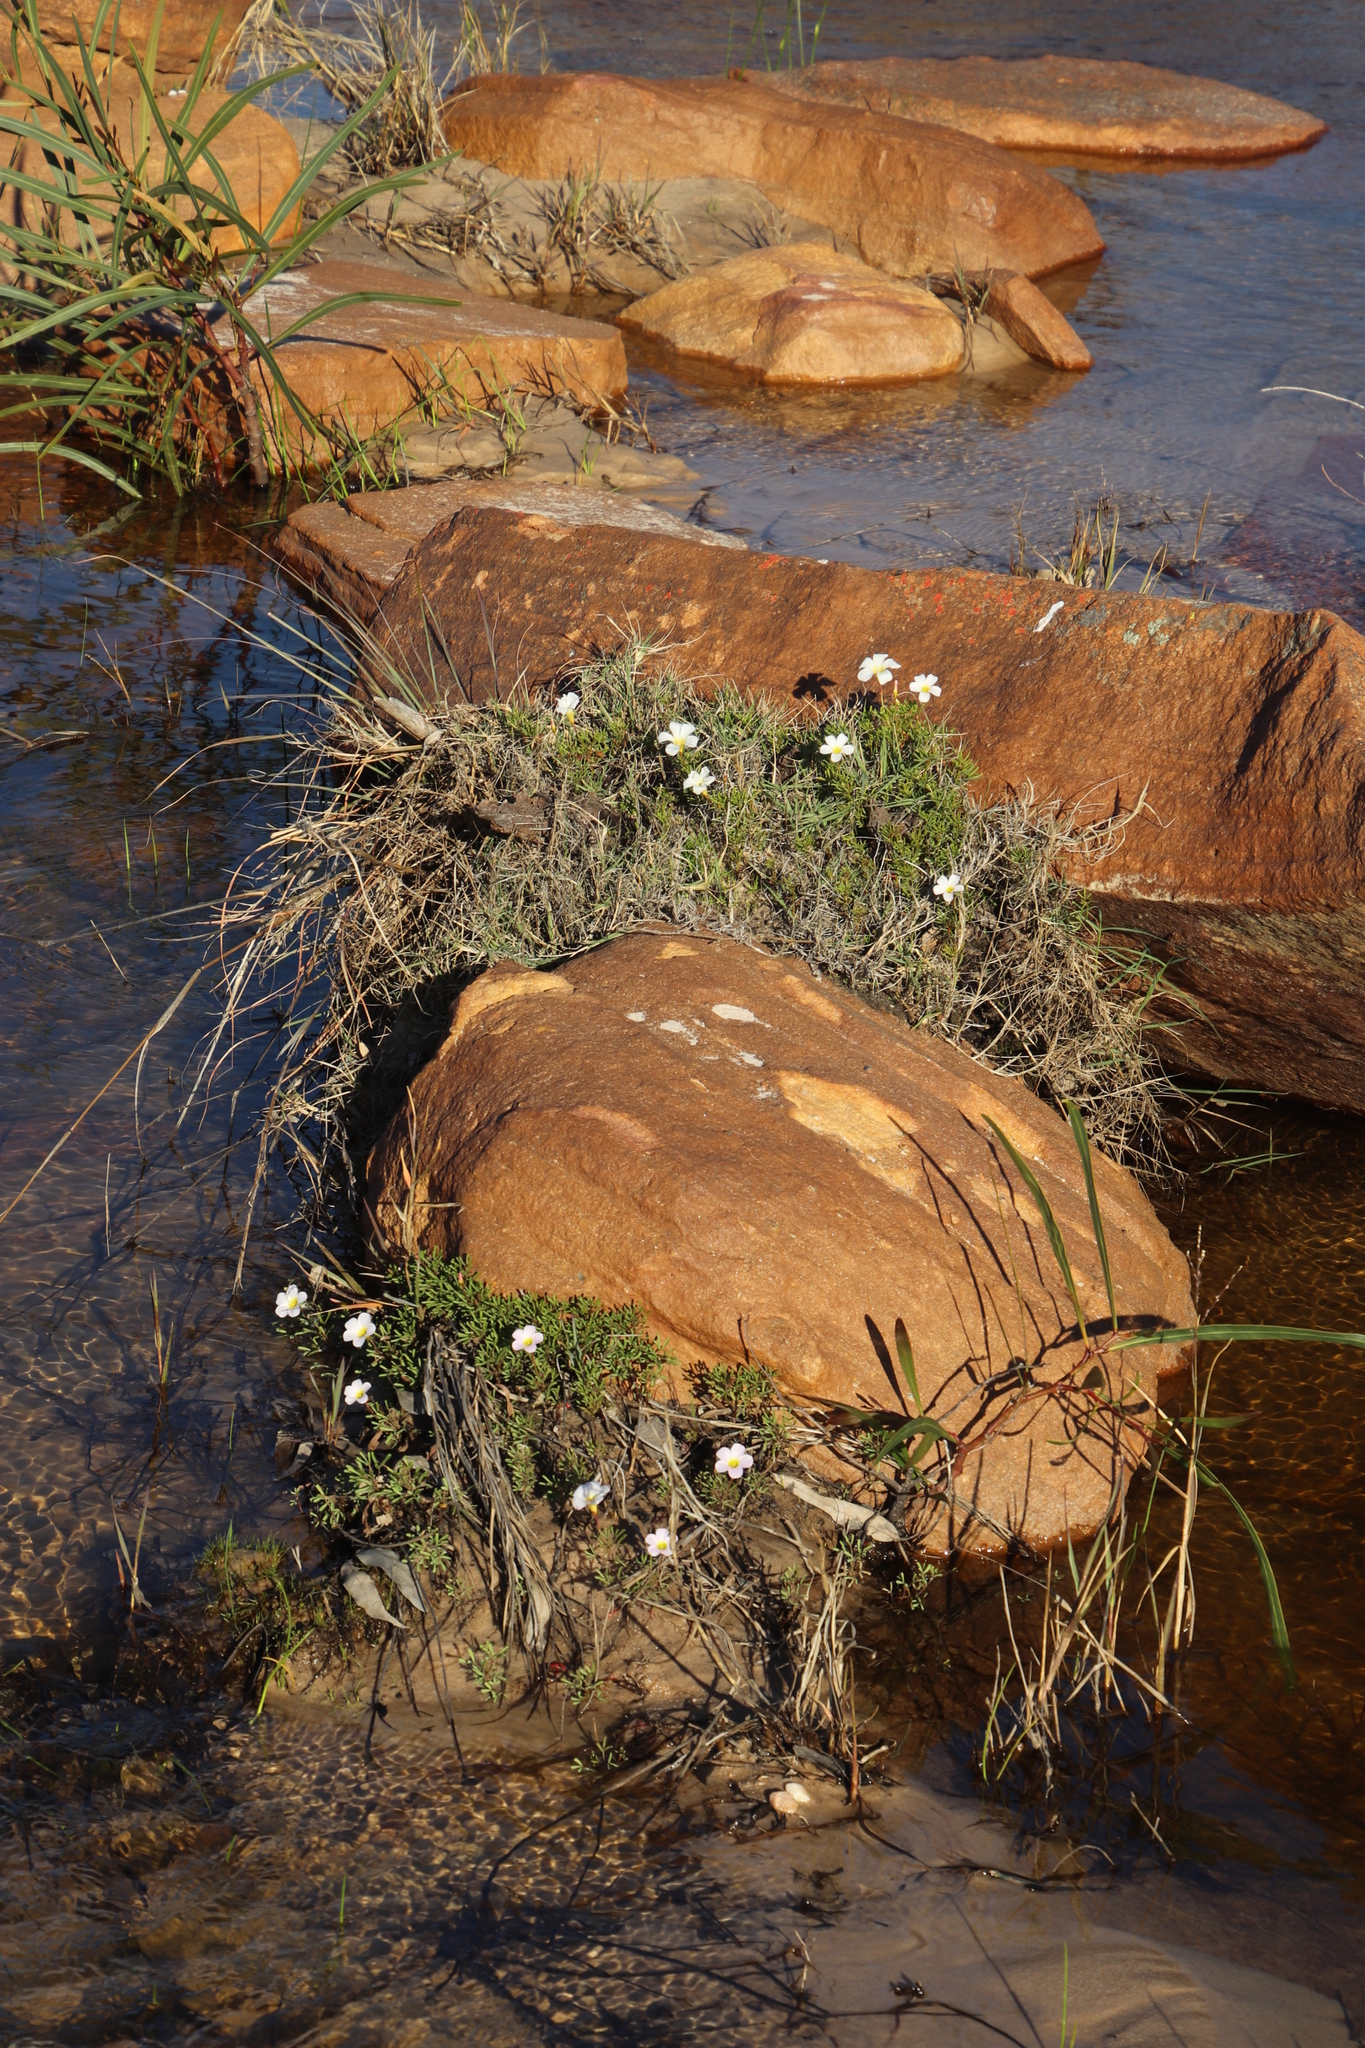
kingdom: Plantae
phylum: Tracheophyta
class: Magnoliopsida
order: Oxalidales
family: Oxalidaceae
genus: Oxalis
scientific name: Oxalis recticaulis
